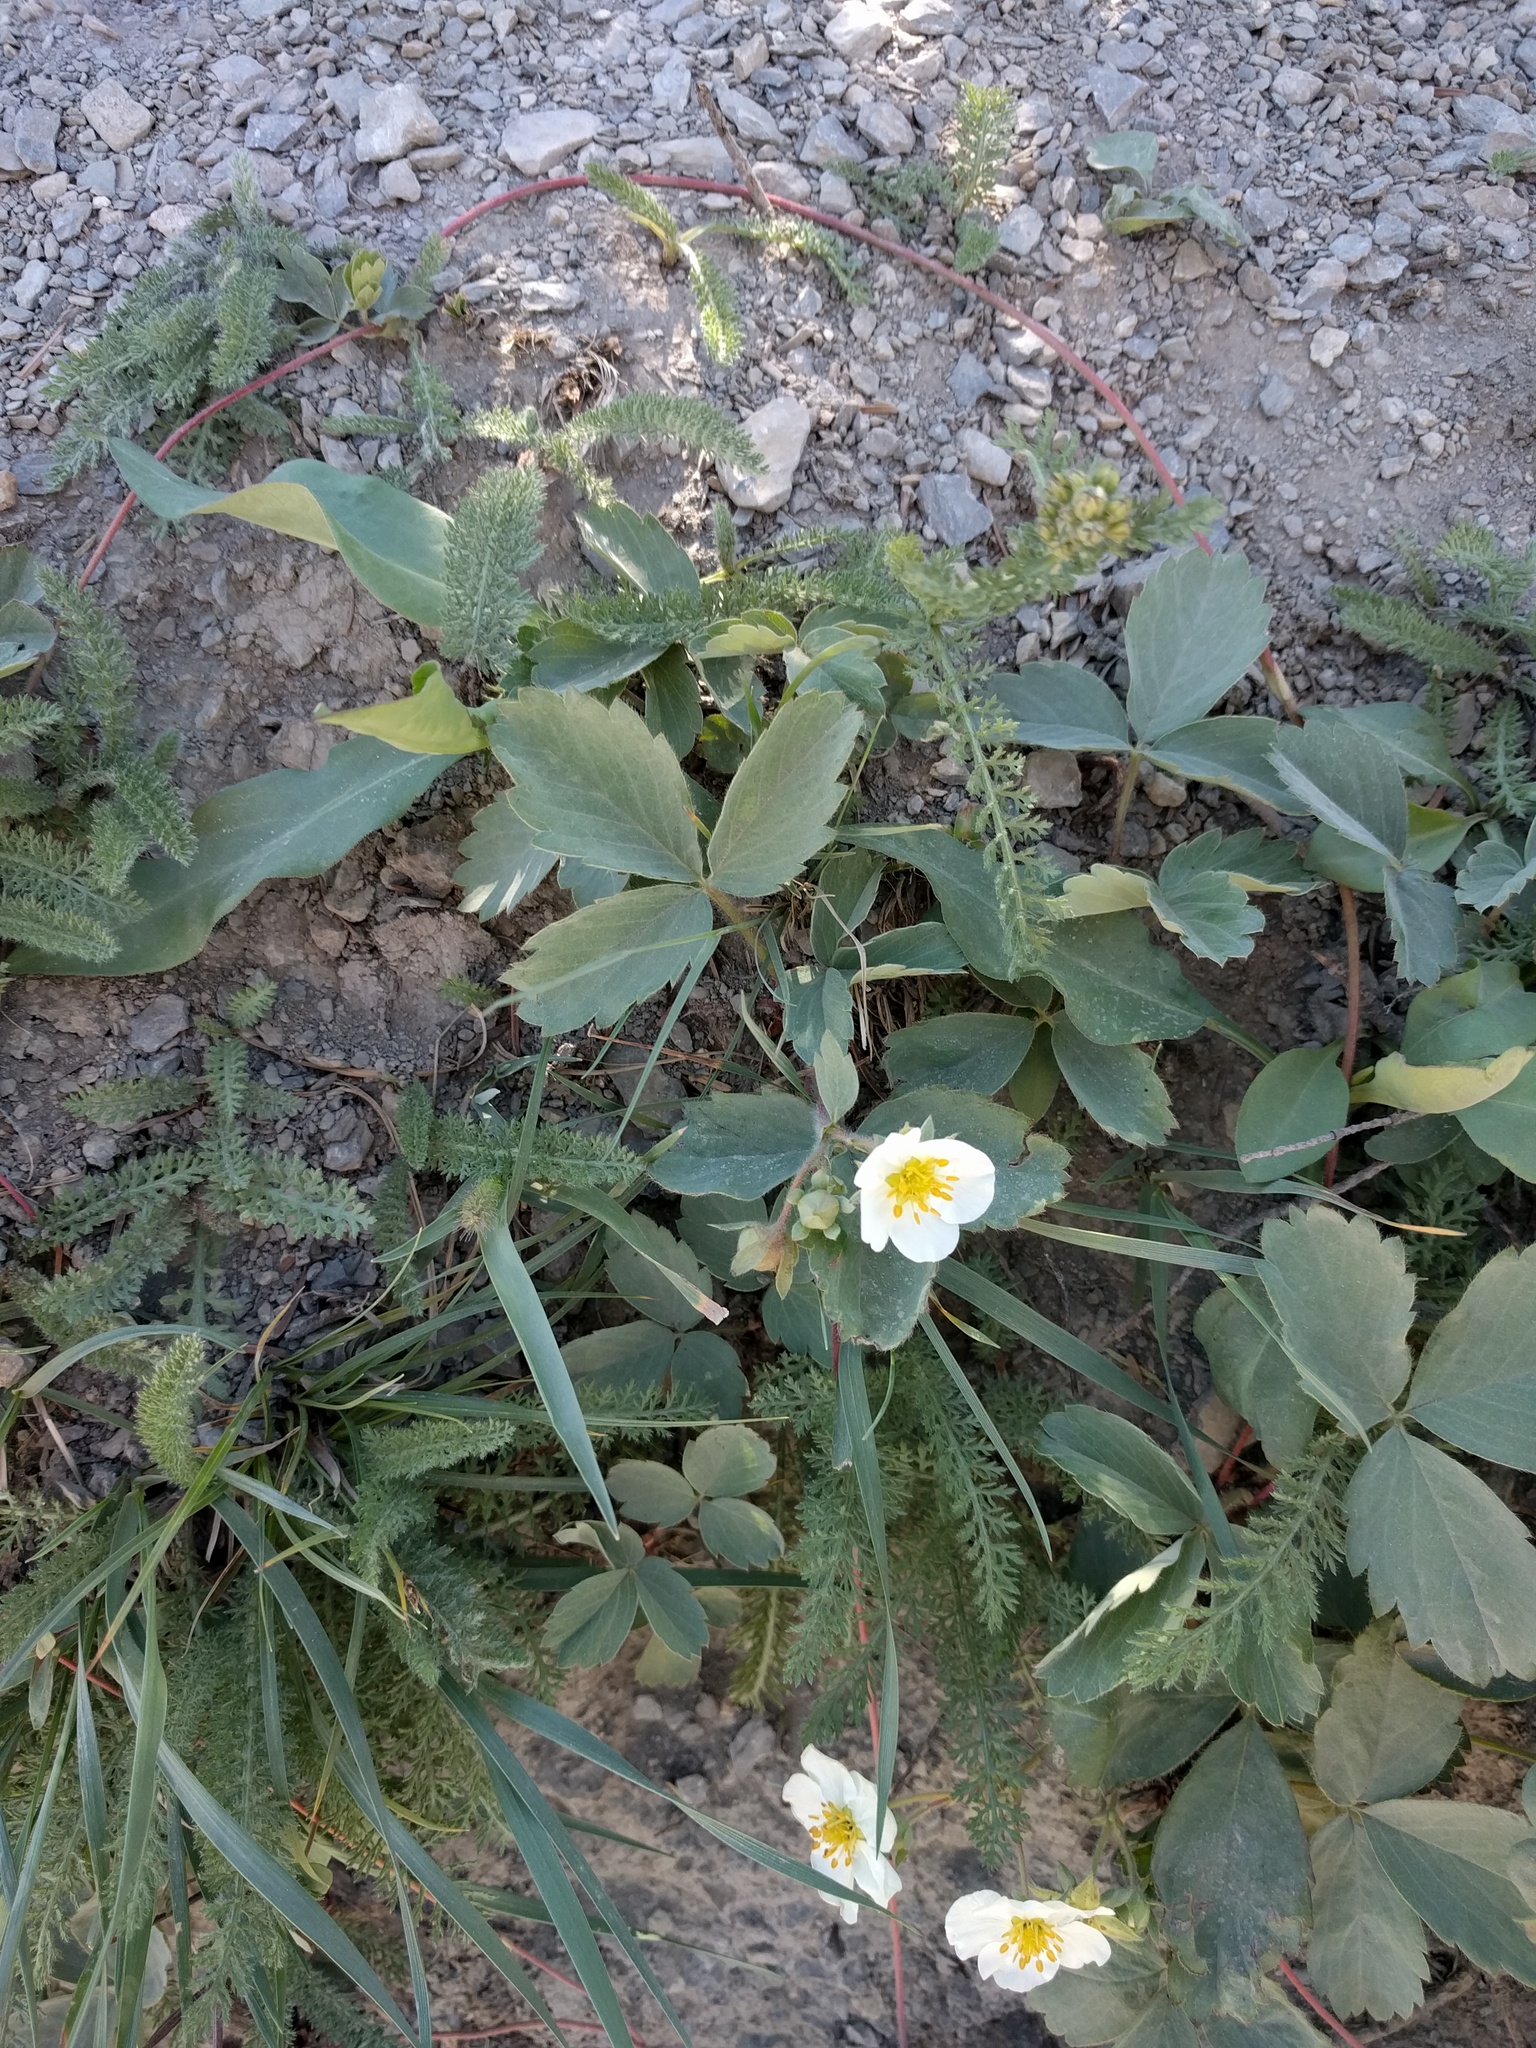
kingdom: Plantae
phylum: Tracheophyta
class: Magnoliopsida
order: Rosales
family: Rosaceae
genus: Fragaria
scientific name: Fragaria virginiana
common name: Thickleaved wild strawberry
